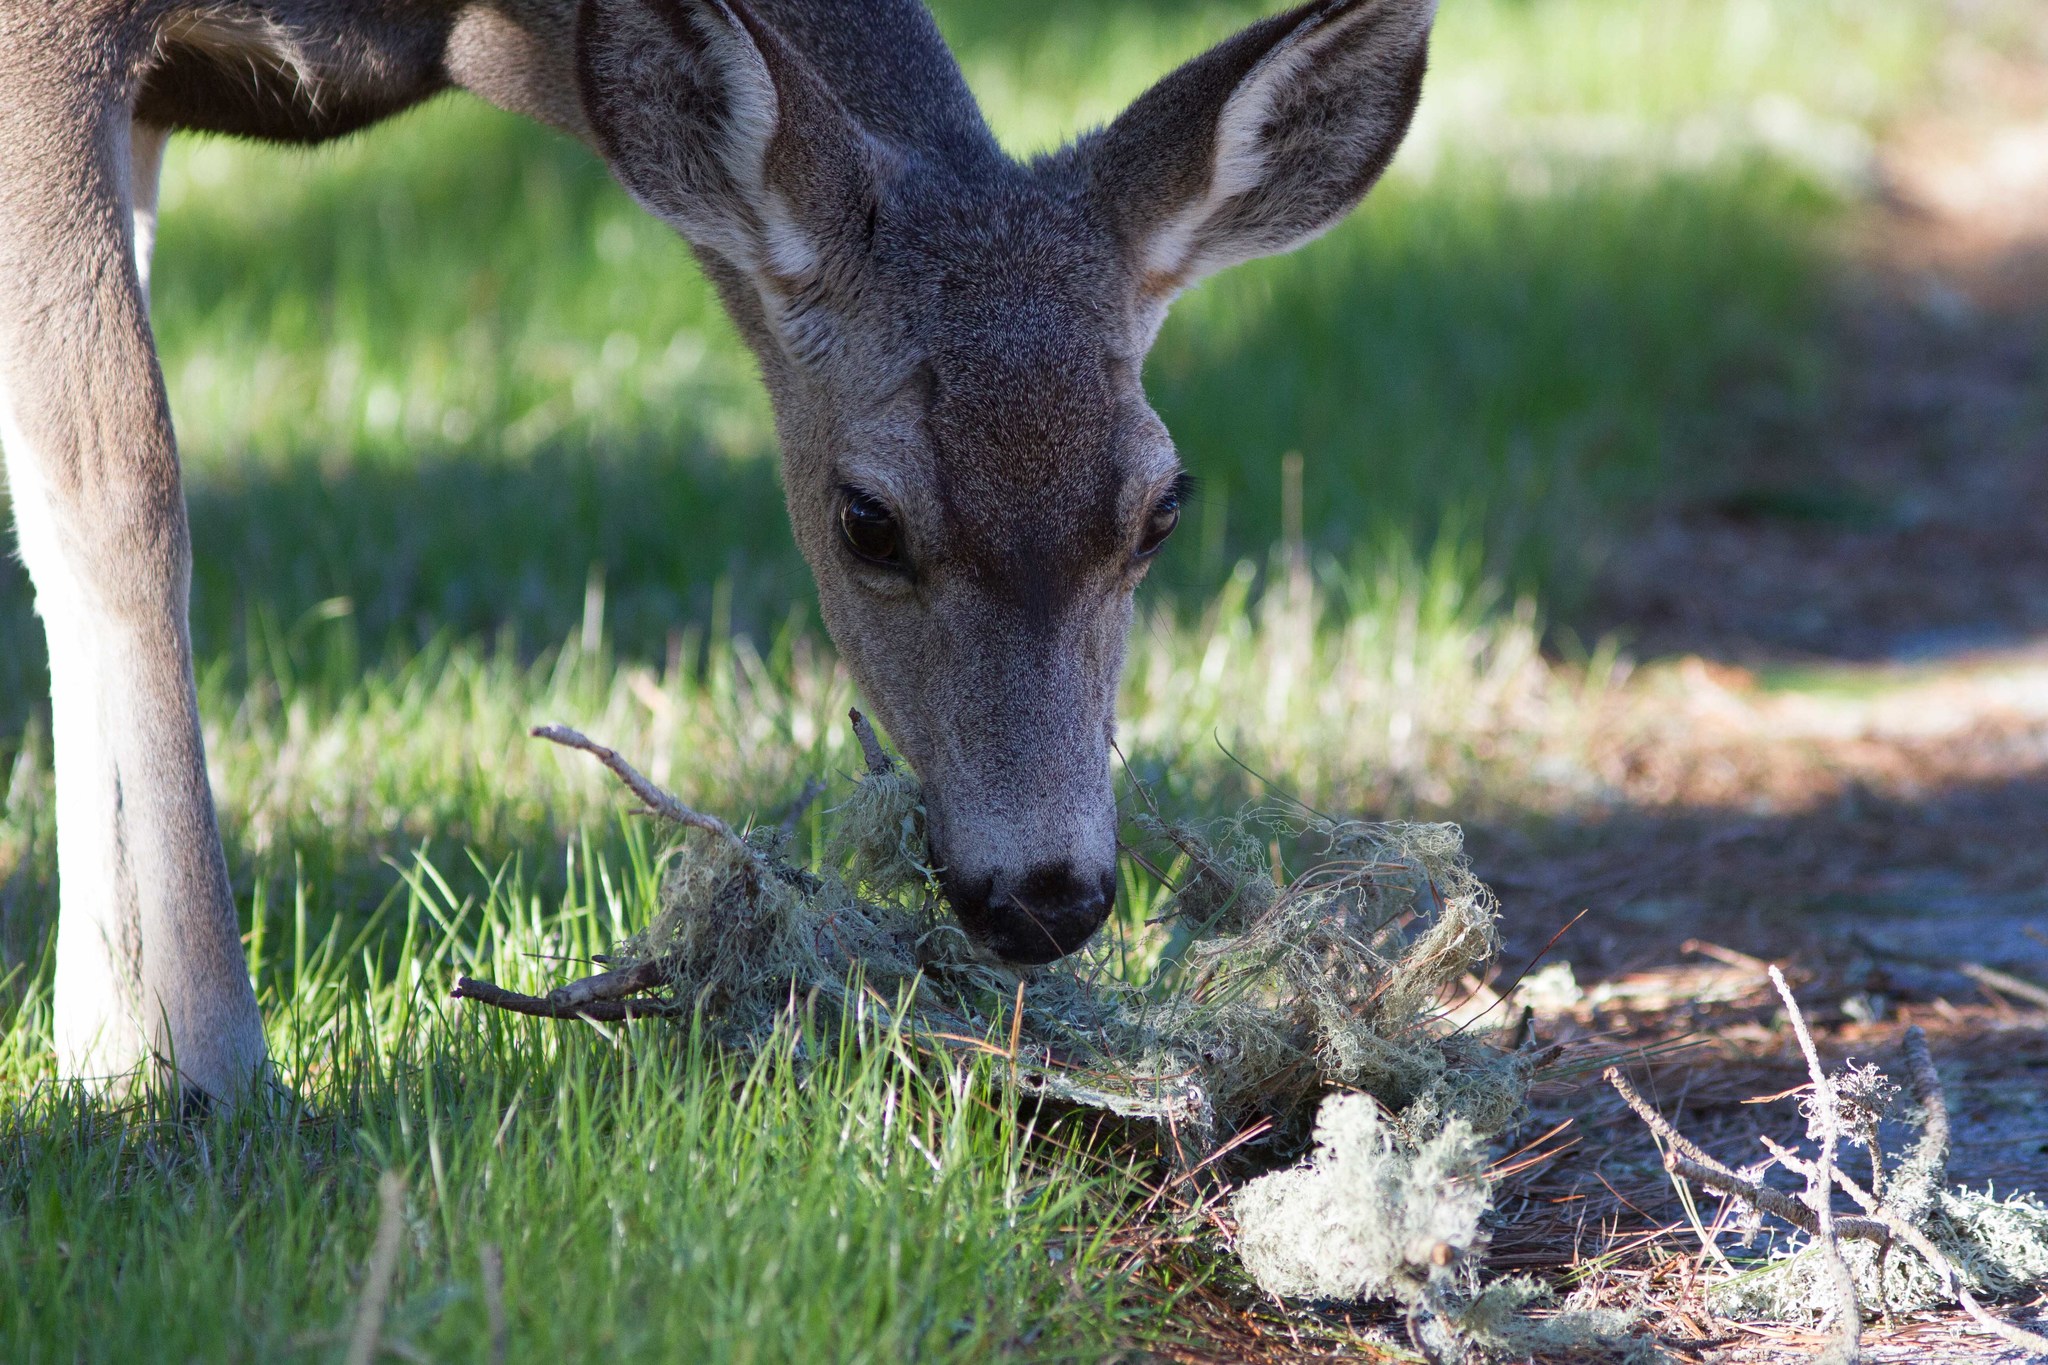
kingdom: Animalia
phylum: Chordata
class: Mammalia
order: Artiodactyla
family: Cervidae
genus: Odocoileus
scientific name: Odocoileus hemionus
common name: Mule deer
